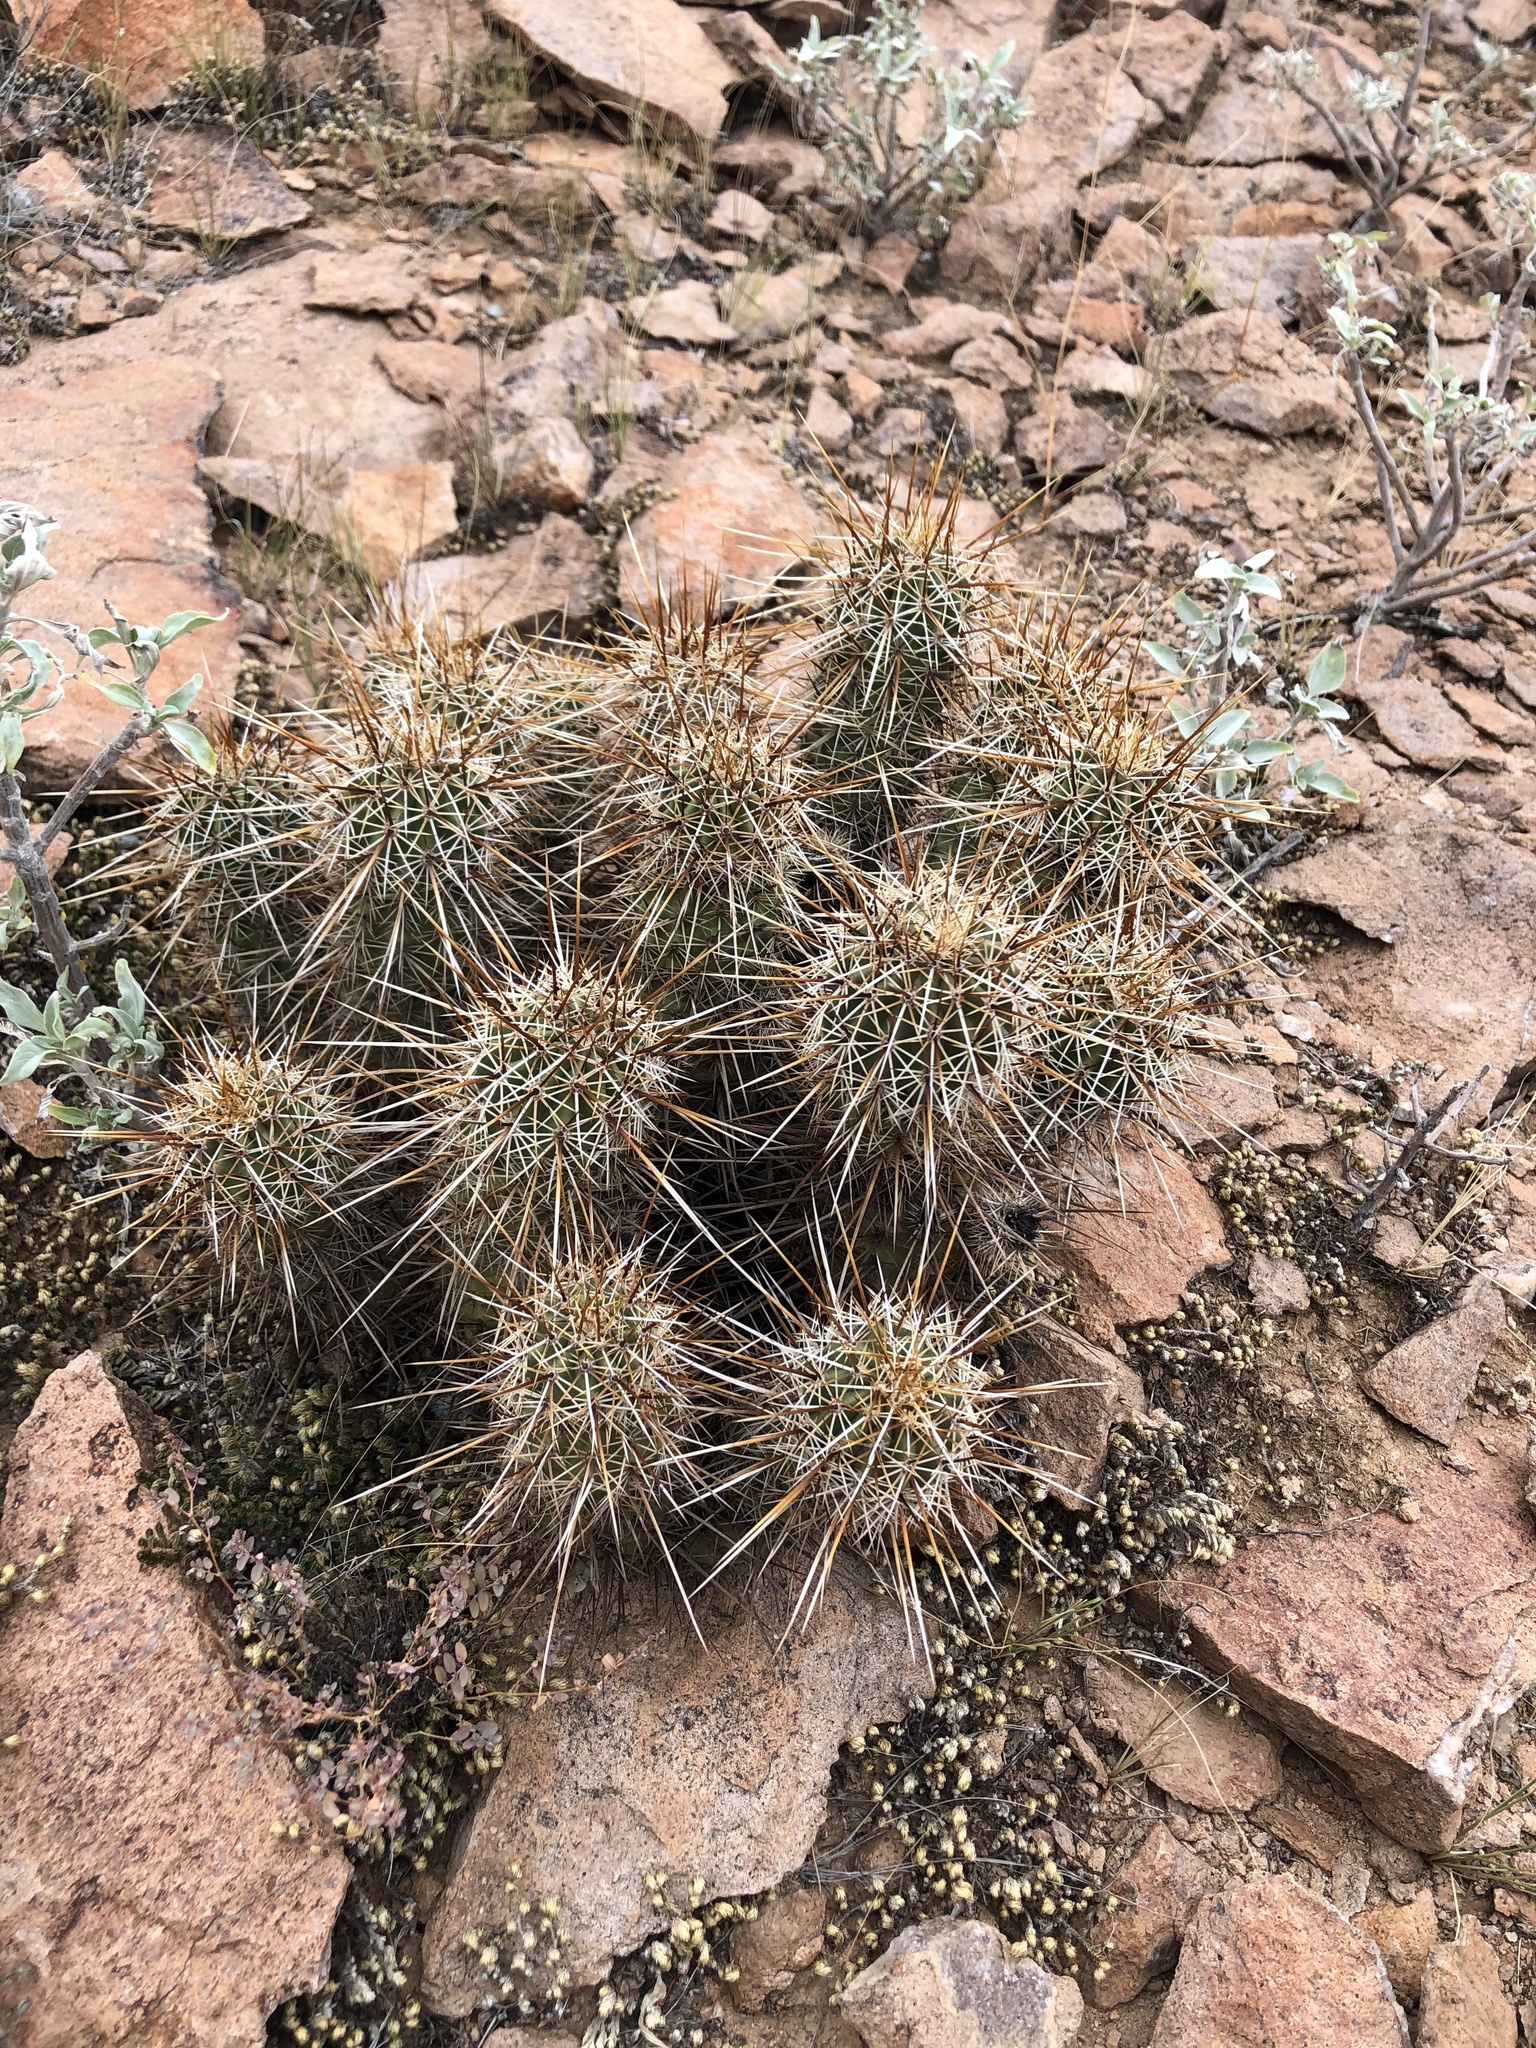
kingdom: Plantae
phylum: Tracheophyta
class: Magnoliopsida
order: Caryophyllales
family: Cactaceae
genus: Echinocereus
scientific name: Echinocereus fasciculatus
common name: Bundle hedgehog
